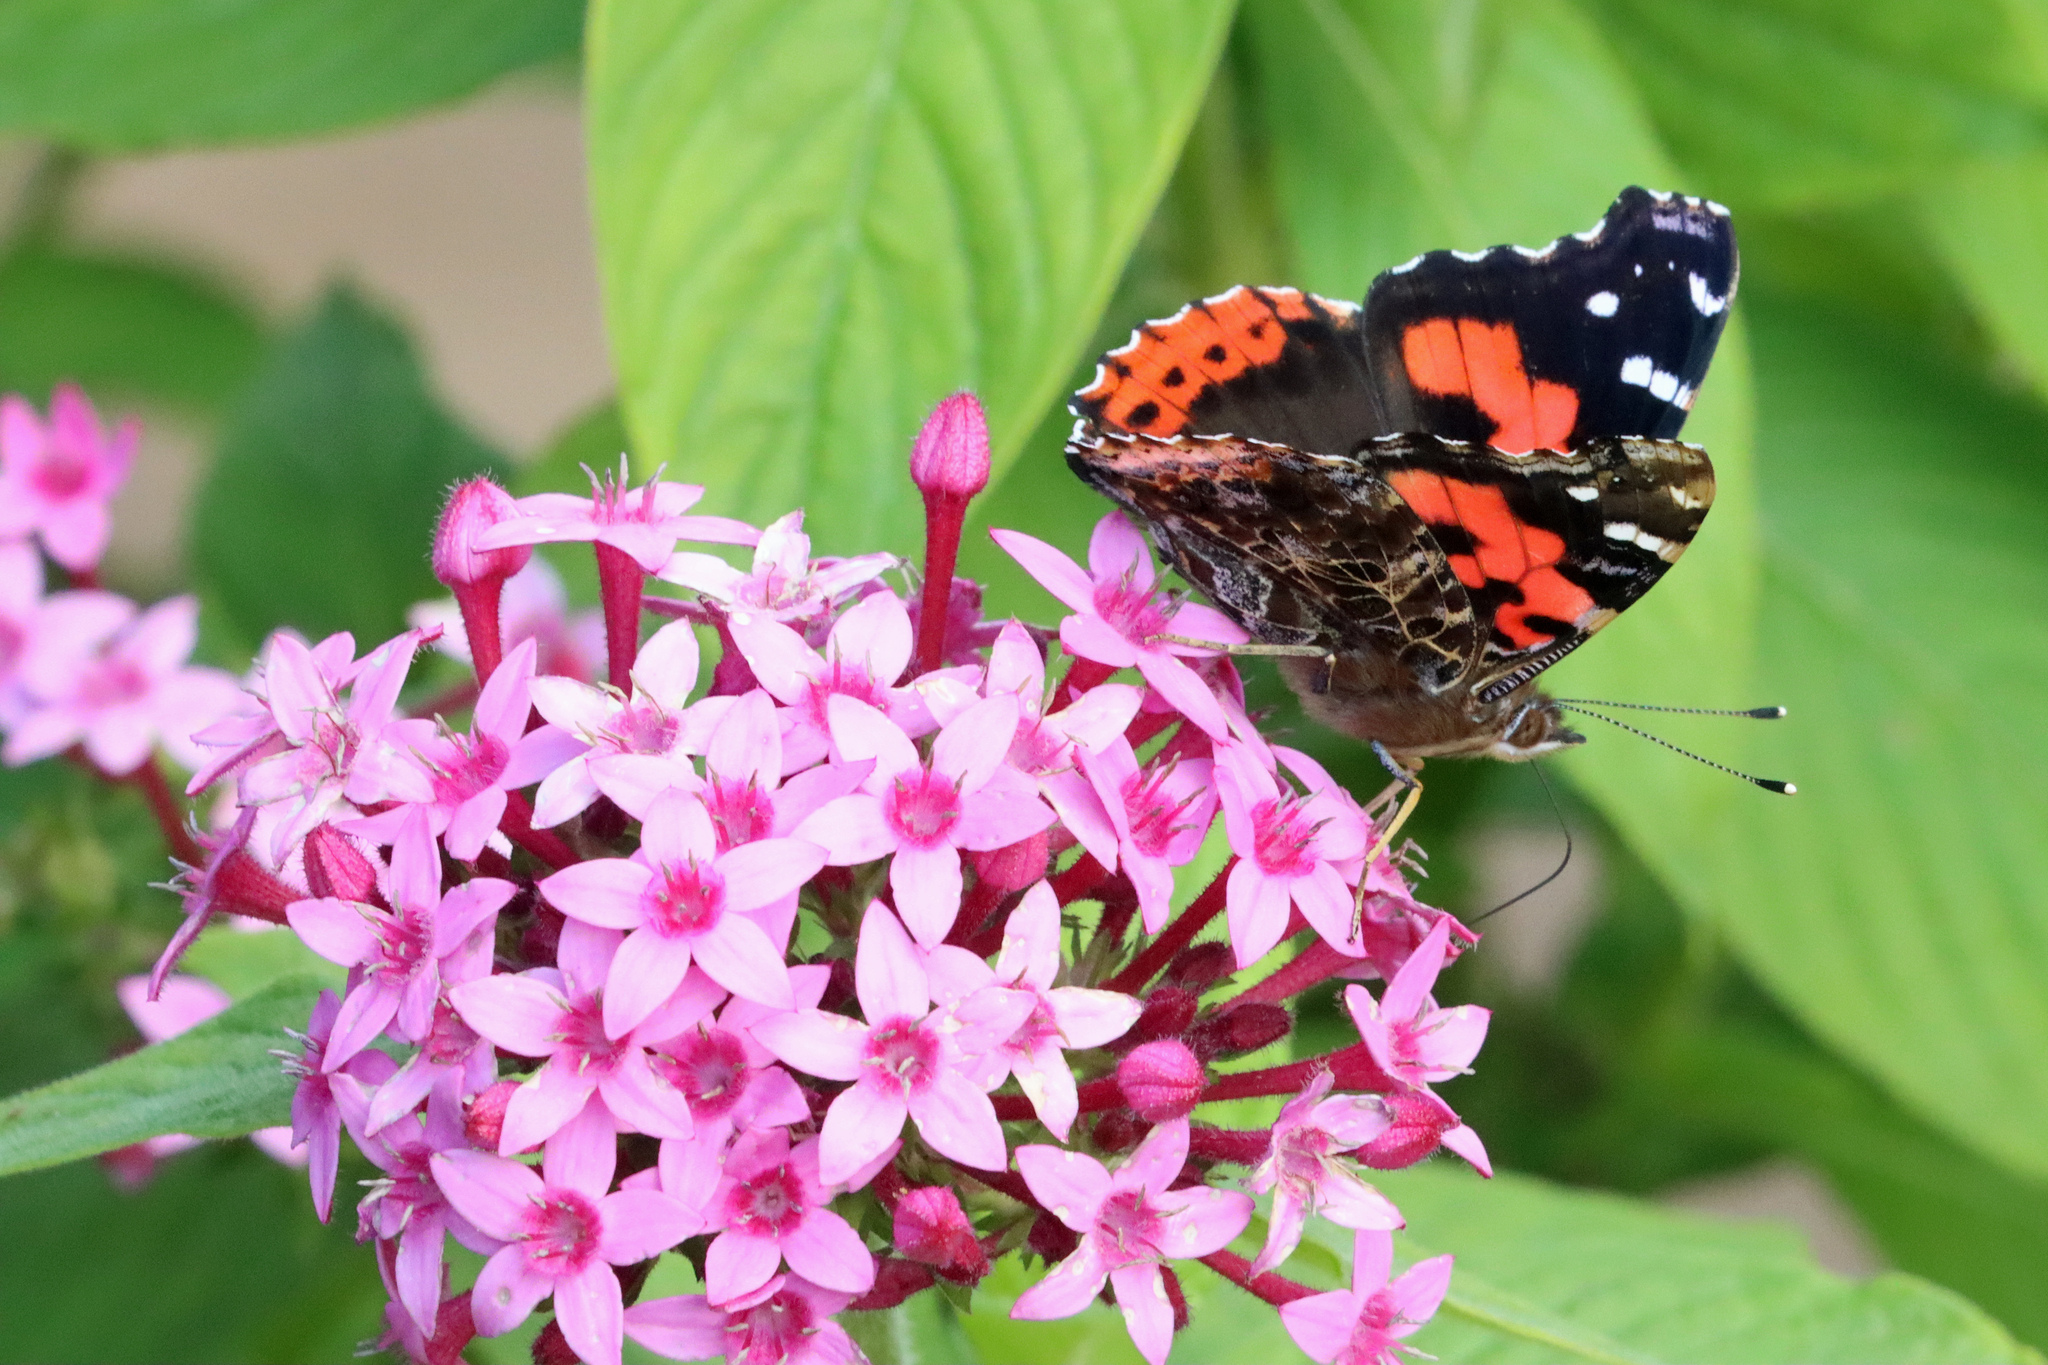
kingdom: Animalia
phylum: Arthropoda
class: Insecta
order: Lepidoptera
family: Nymphalidae
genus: Vanessa
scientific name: Vanessa vulcania
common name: Canary red admiral
